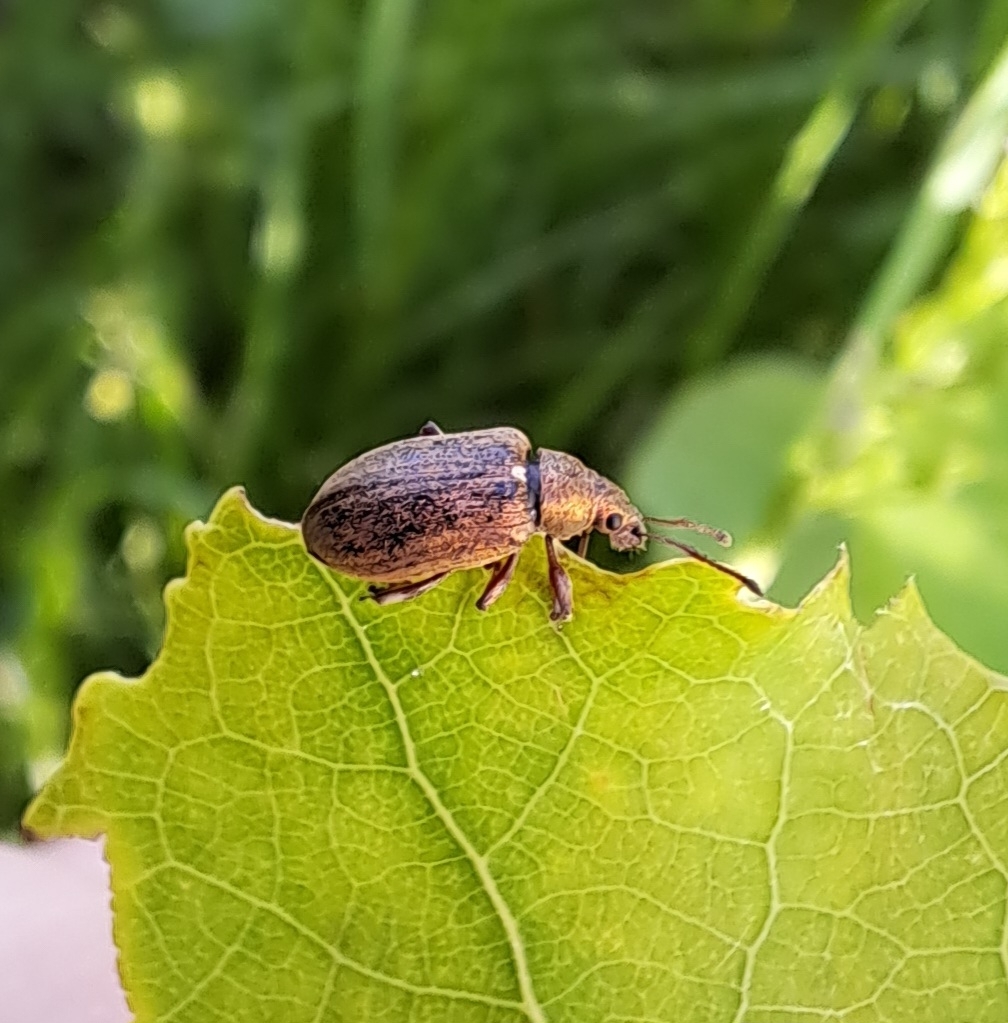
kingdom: Animalia
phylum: Arthropoda
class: Insecta
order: Coleoptera
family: Curculionidae
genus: Phyllobius
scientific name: Phyllobius pyri
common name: Common leaf weevil
